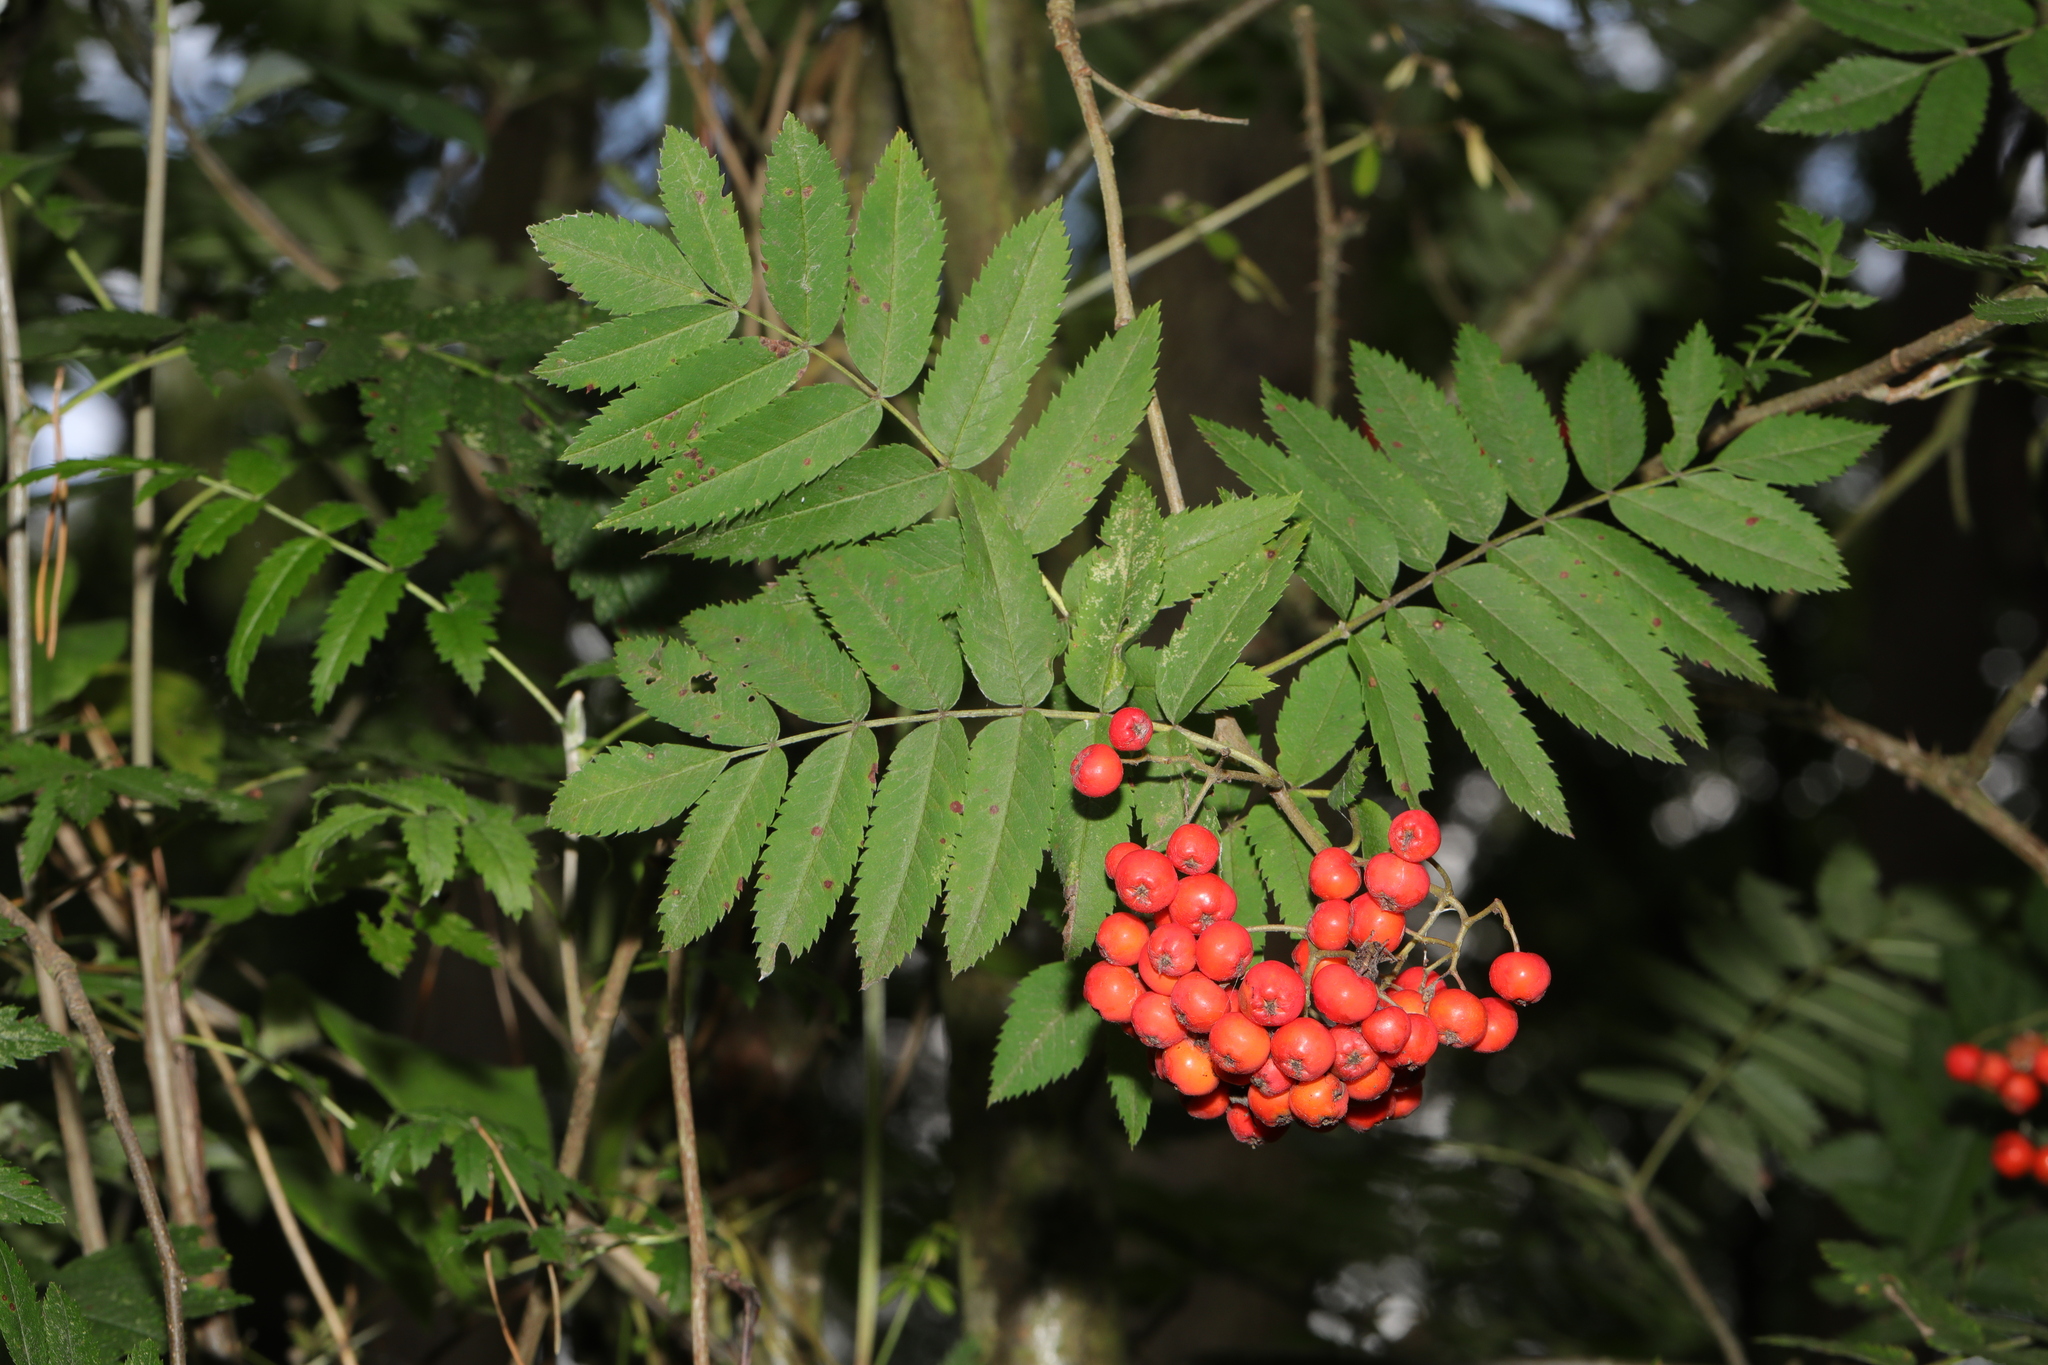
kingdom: Plantae
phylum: Tracheophyta
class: Magnoliopsida
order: Rosales
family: Rosaceae
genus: Sorbus
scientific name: Sorbus aucuparia
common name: Rowan
